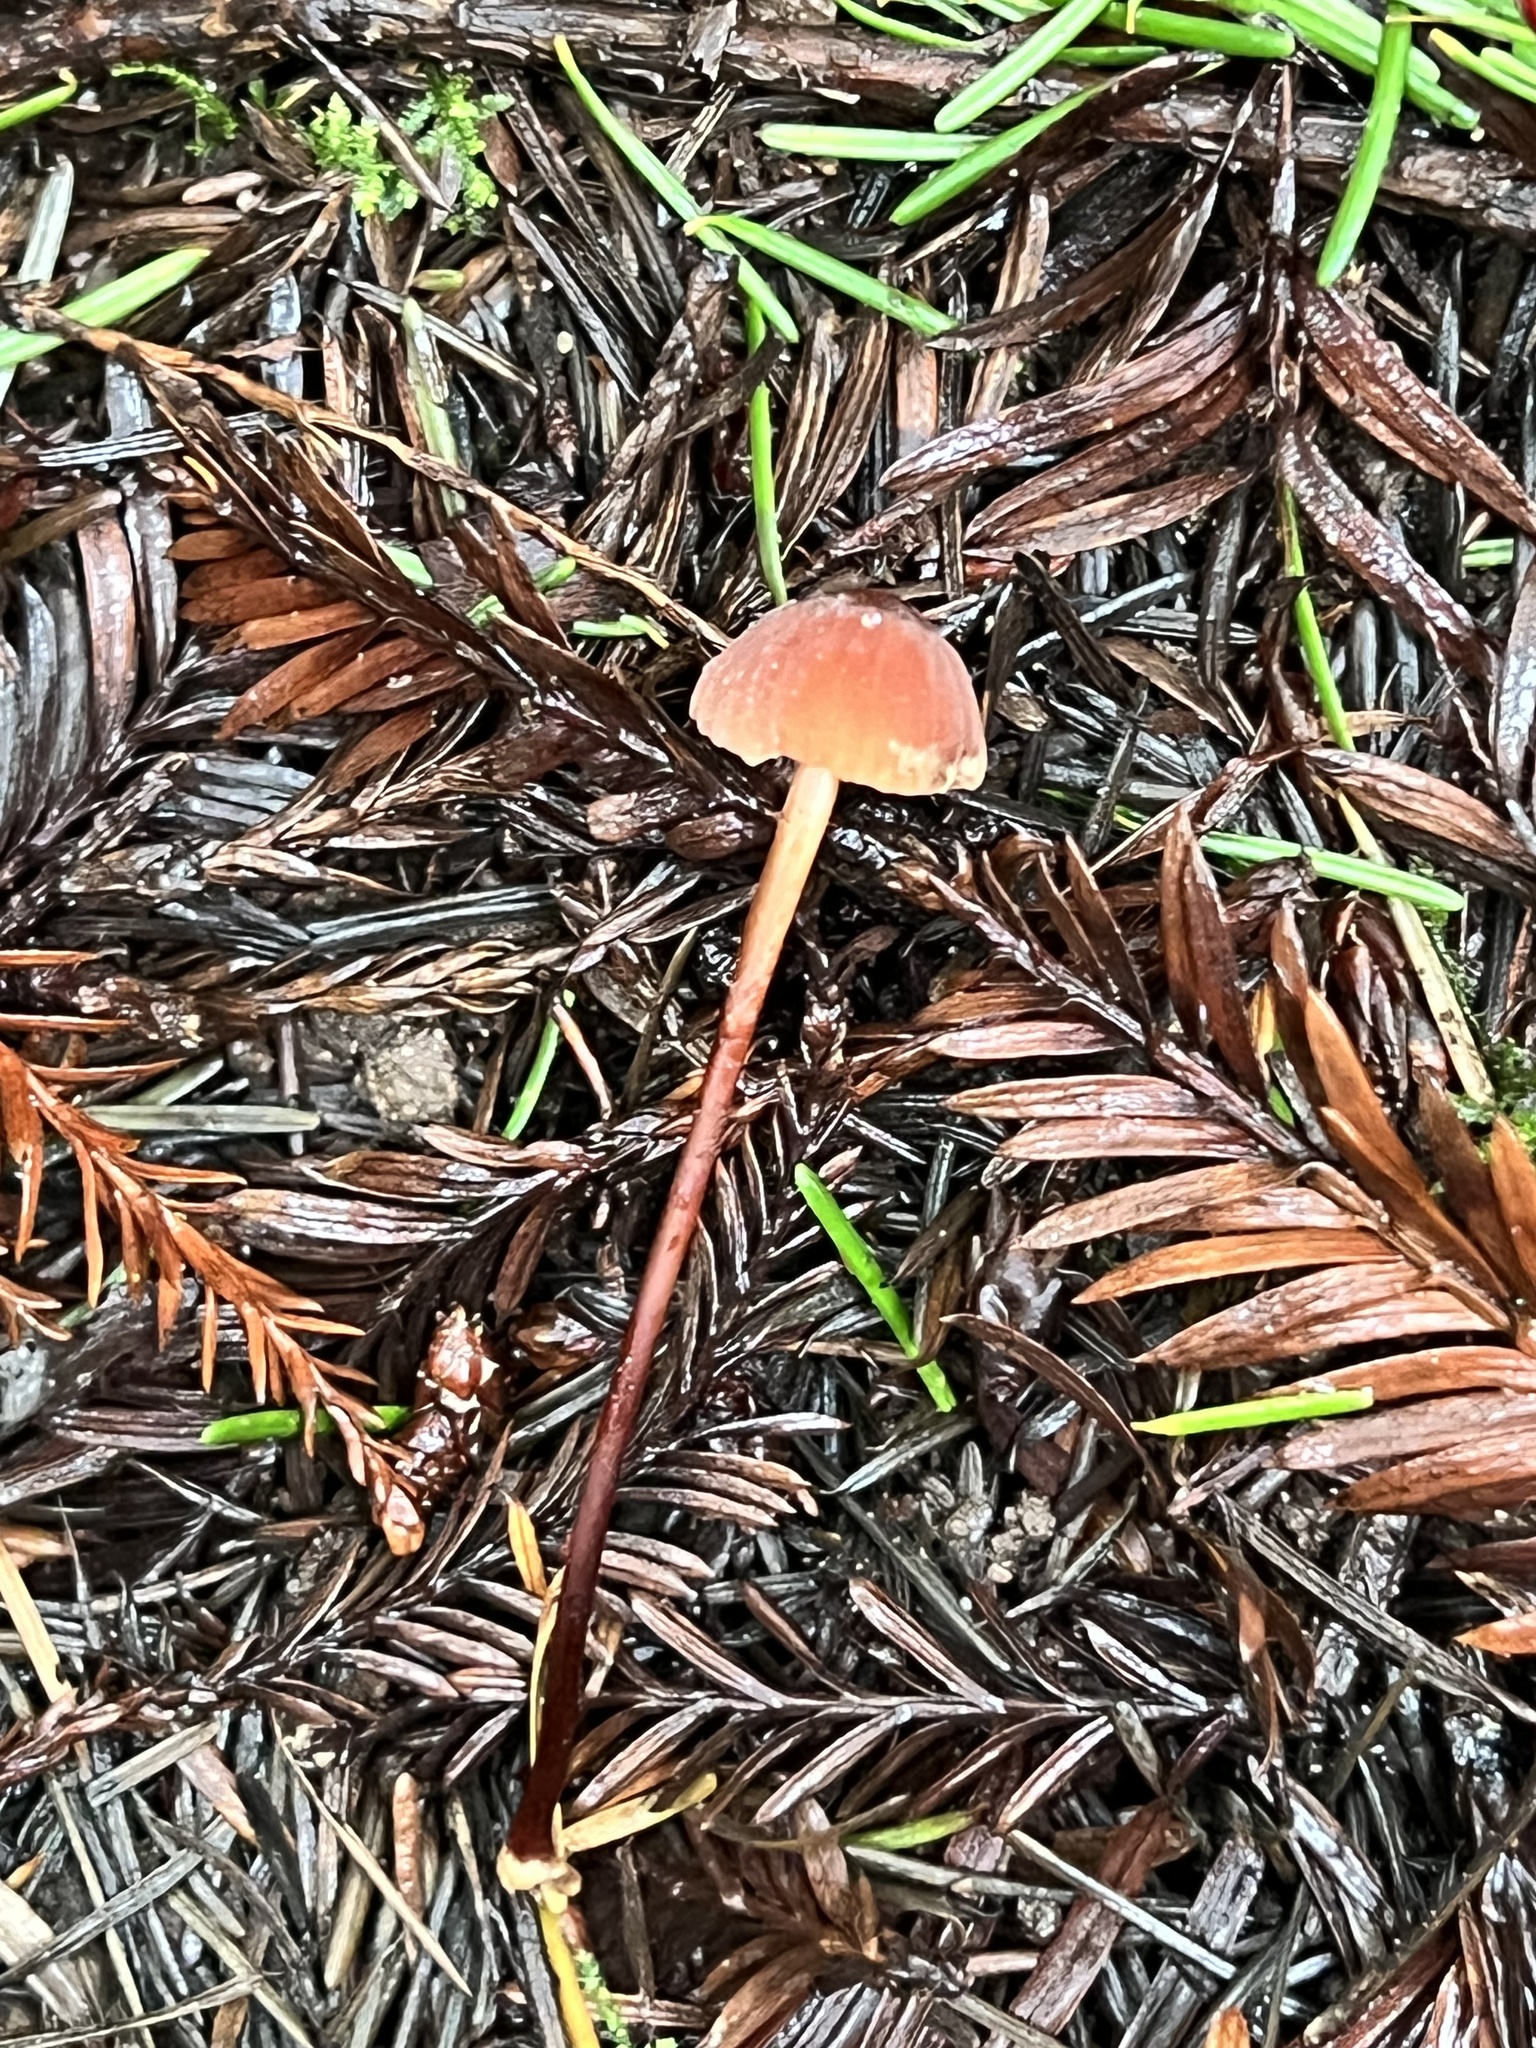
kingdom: Fungi
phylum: Basidiomycota
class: Agaricomycetes
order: Agaricales
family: Marasmiaceae
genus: Marasmius
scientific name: Marasmius plicatulus
